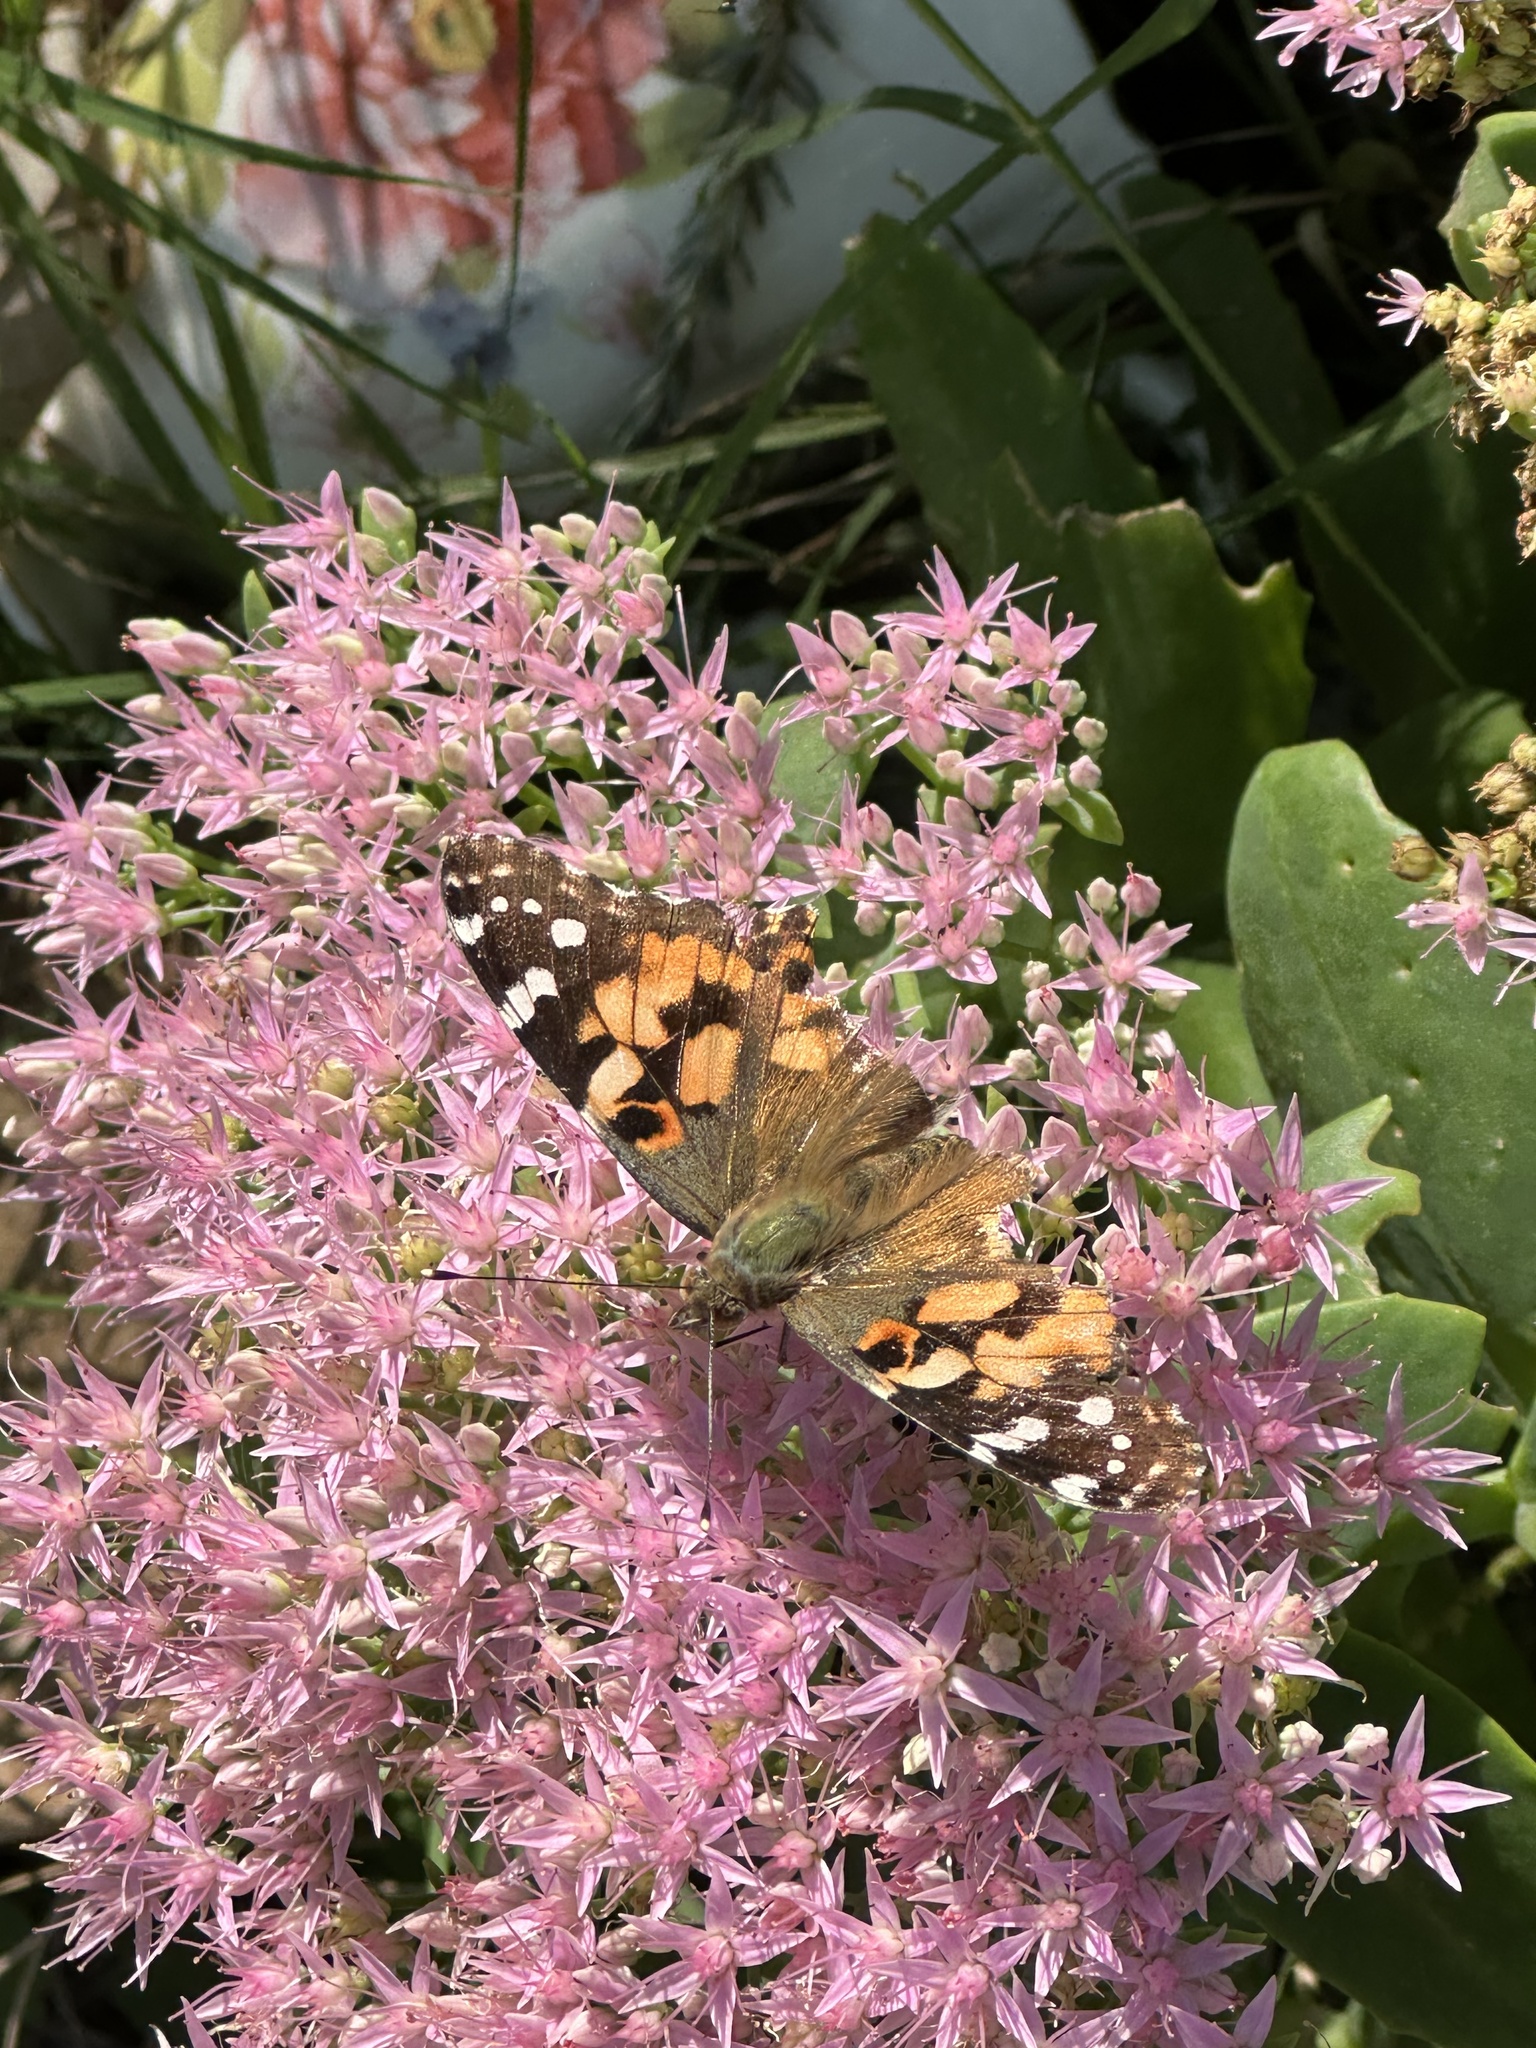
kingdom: Animalia
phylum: Arthropoda
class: Insecta
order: Lepidoptera
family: Nymphalidae
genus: Vanessa
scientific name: Vanessa cardui
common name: Painted lady
